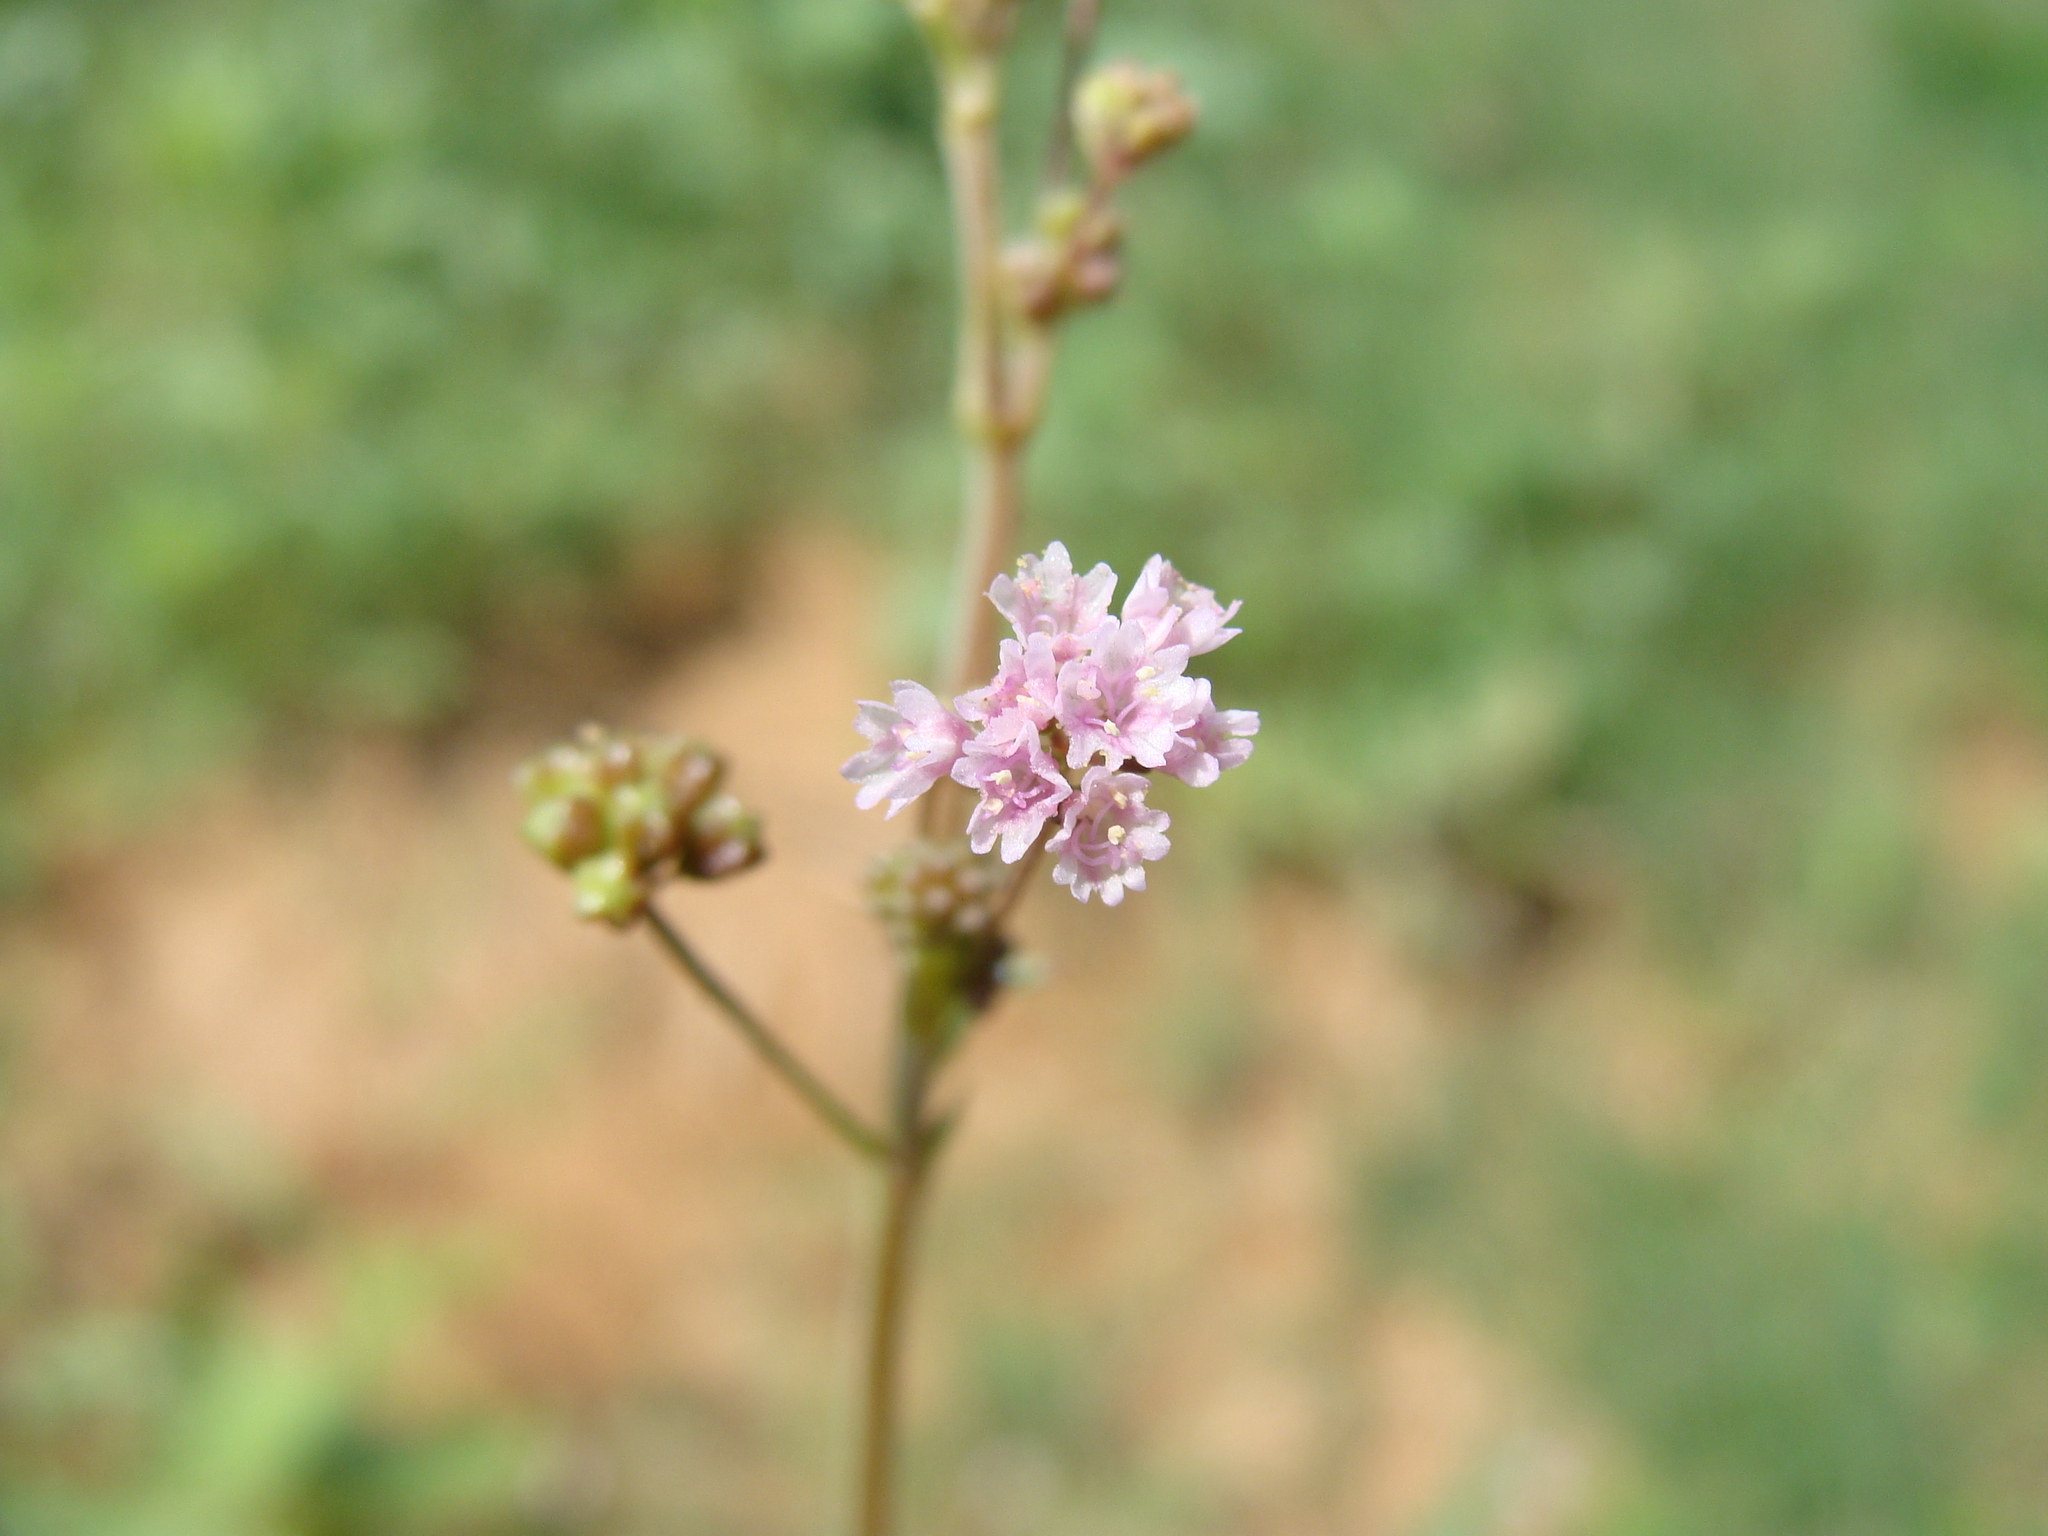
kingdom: Plantae
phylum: Tracheophyta
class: Magnoliopsida
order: Caryophyllales
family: Nyctaginaceae
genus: Boerhavia
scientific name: Boerhavia triquetra
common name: Creeping sticky-stem
